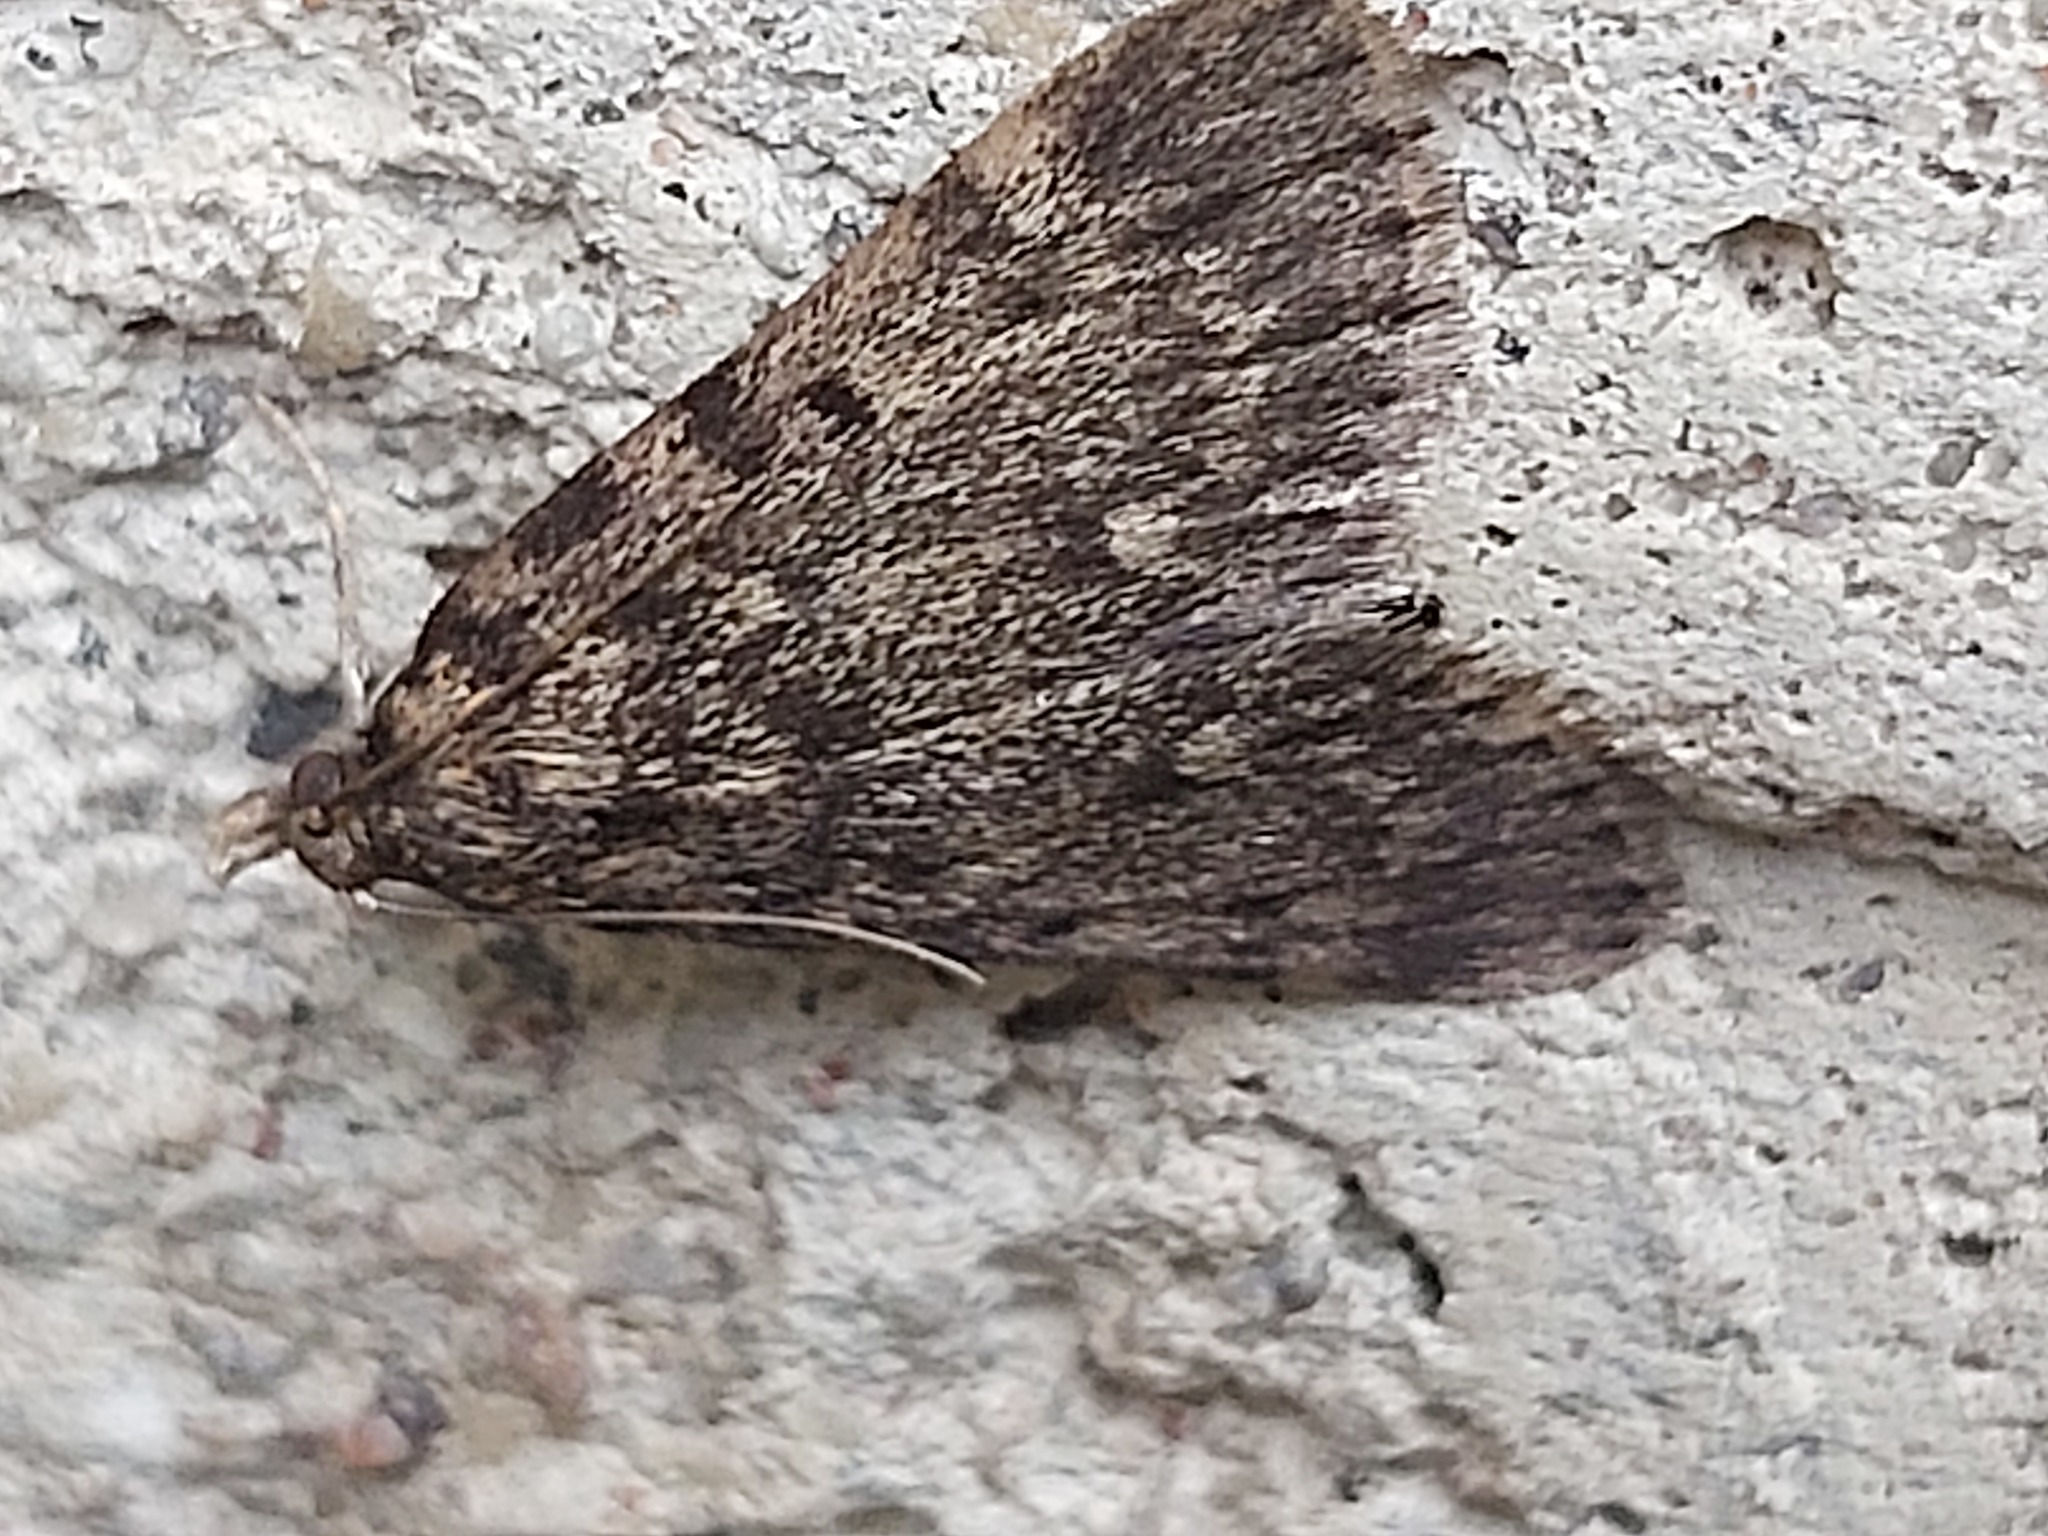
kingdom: Animalia
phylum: Arthropoda
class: Insecta
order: Lepidoptera
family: Pyralidae
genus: Aglossa
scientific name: Aglossa pinguinalis
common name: Large tabby
